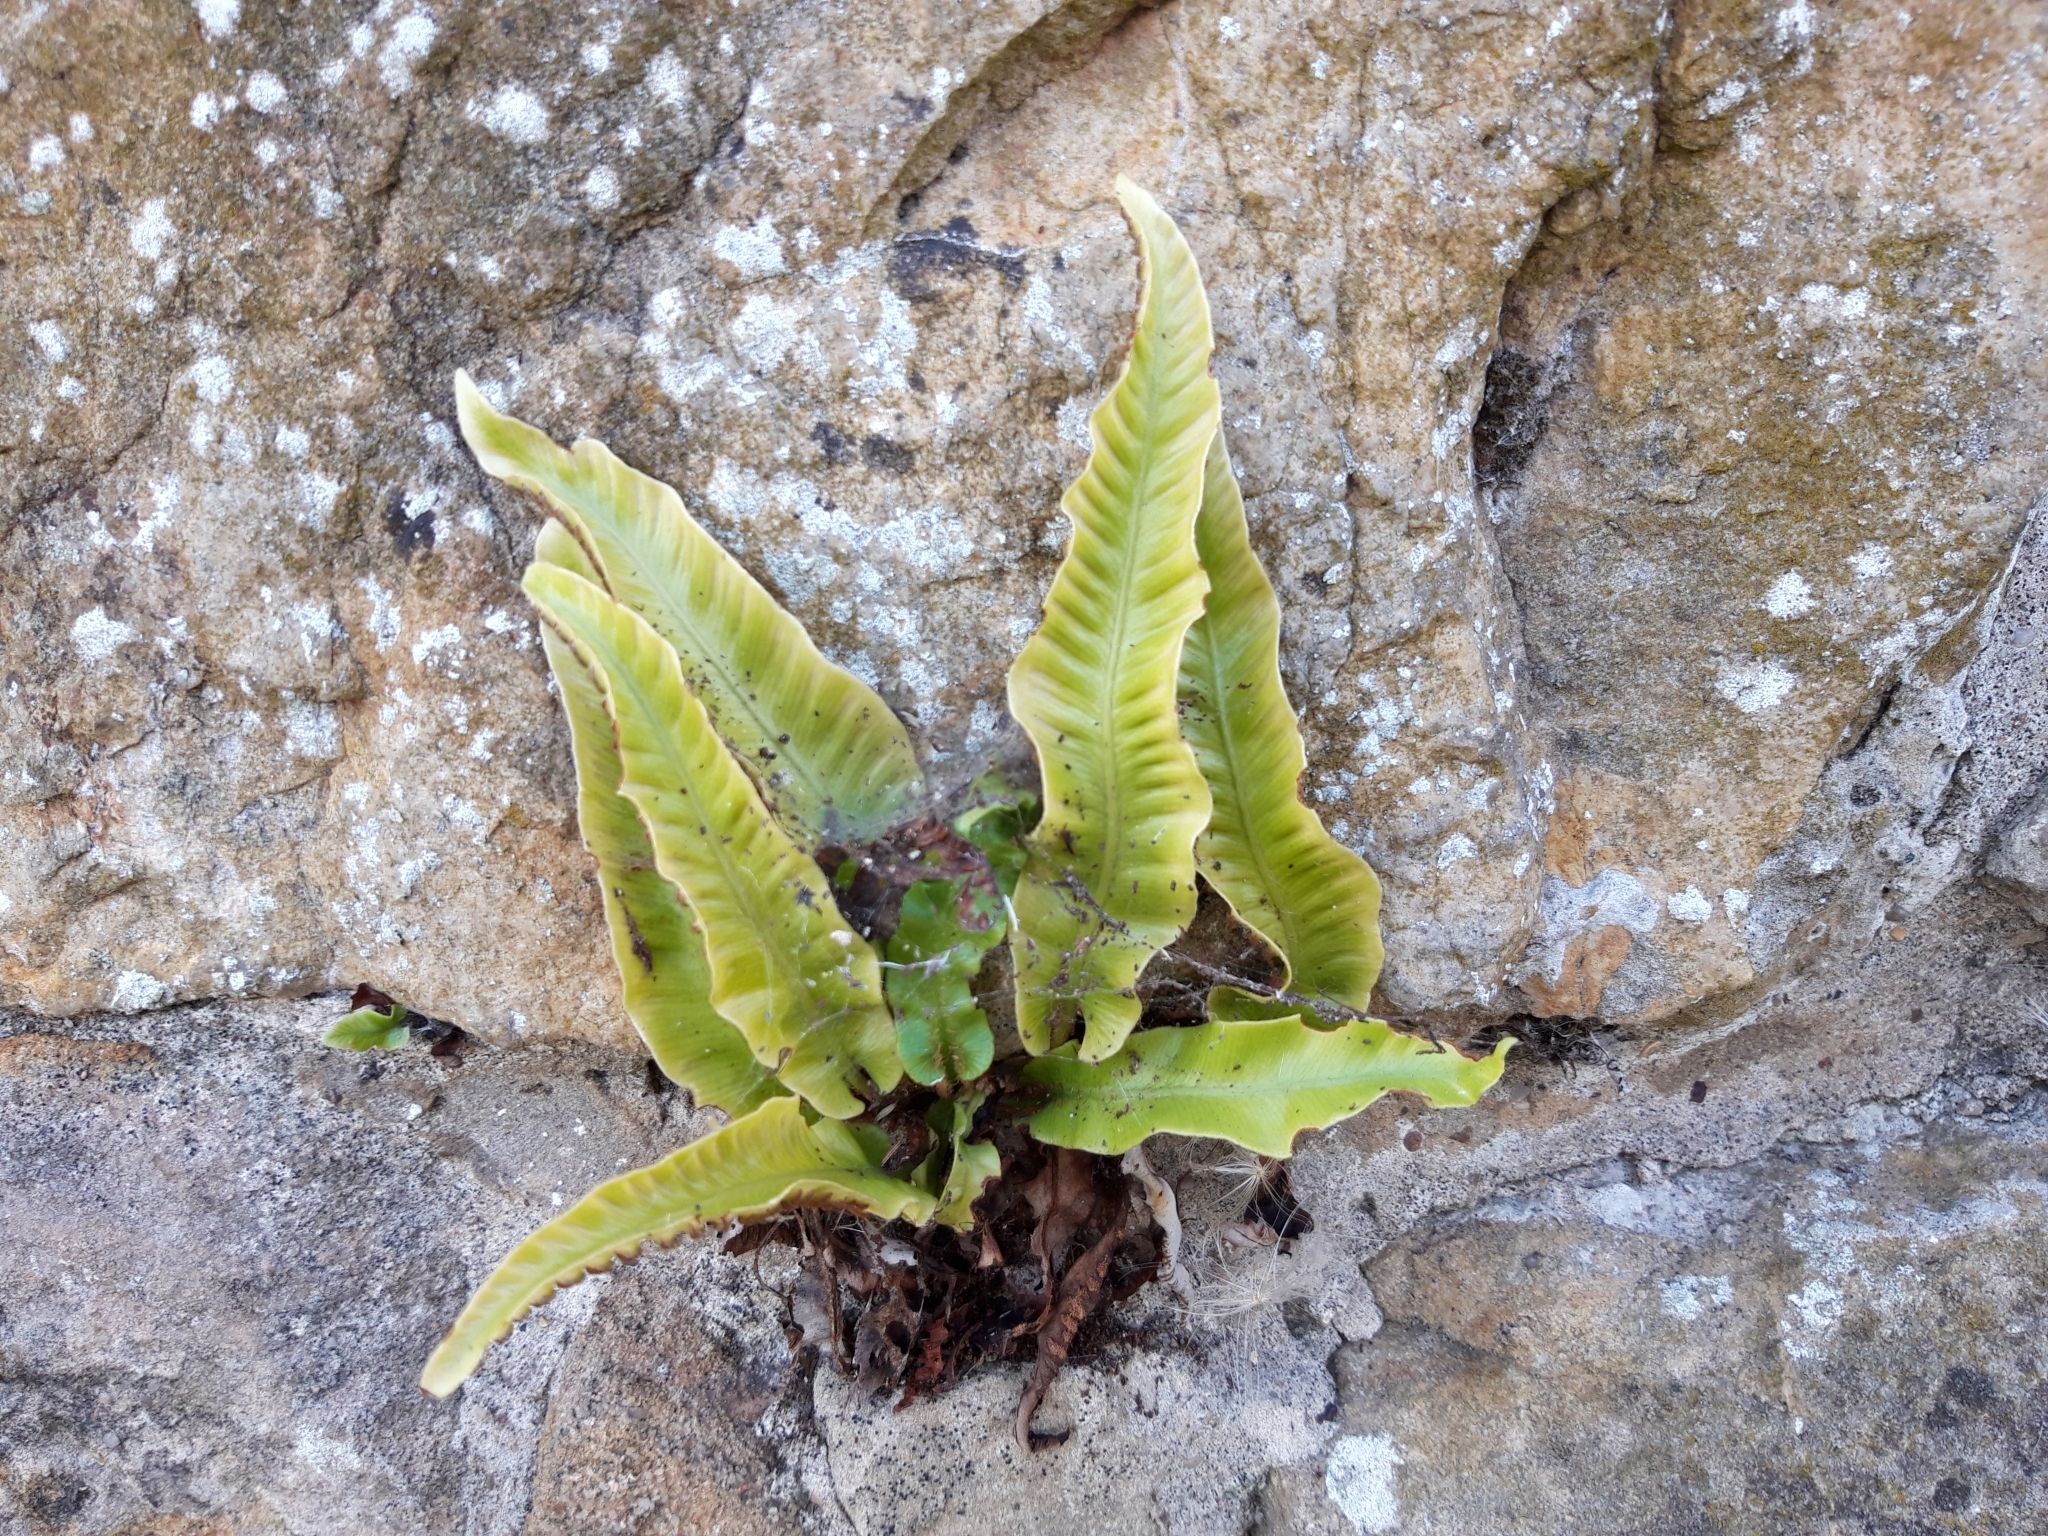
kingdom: Plantae
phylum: Tracheophyta
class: Polypodiopsida
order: Polypodiales
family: Aspleniaceae
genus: Asplenium
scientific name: Asplenium scolopendrium
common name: Hart's-tongue fern
